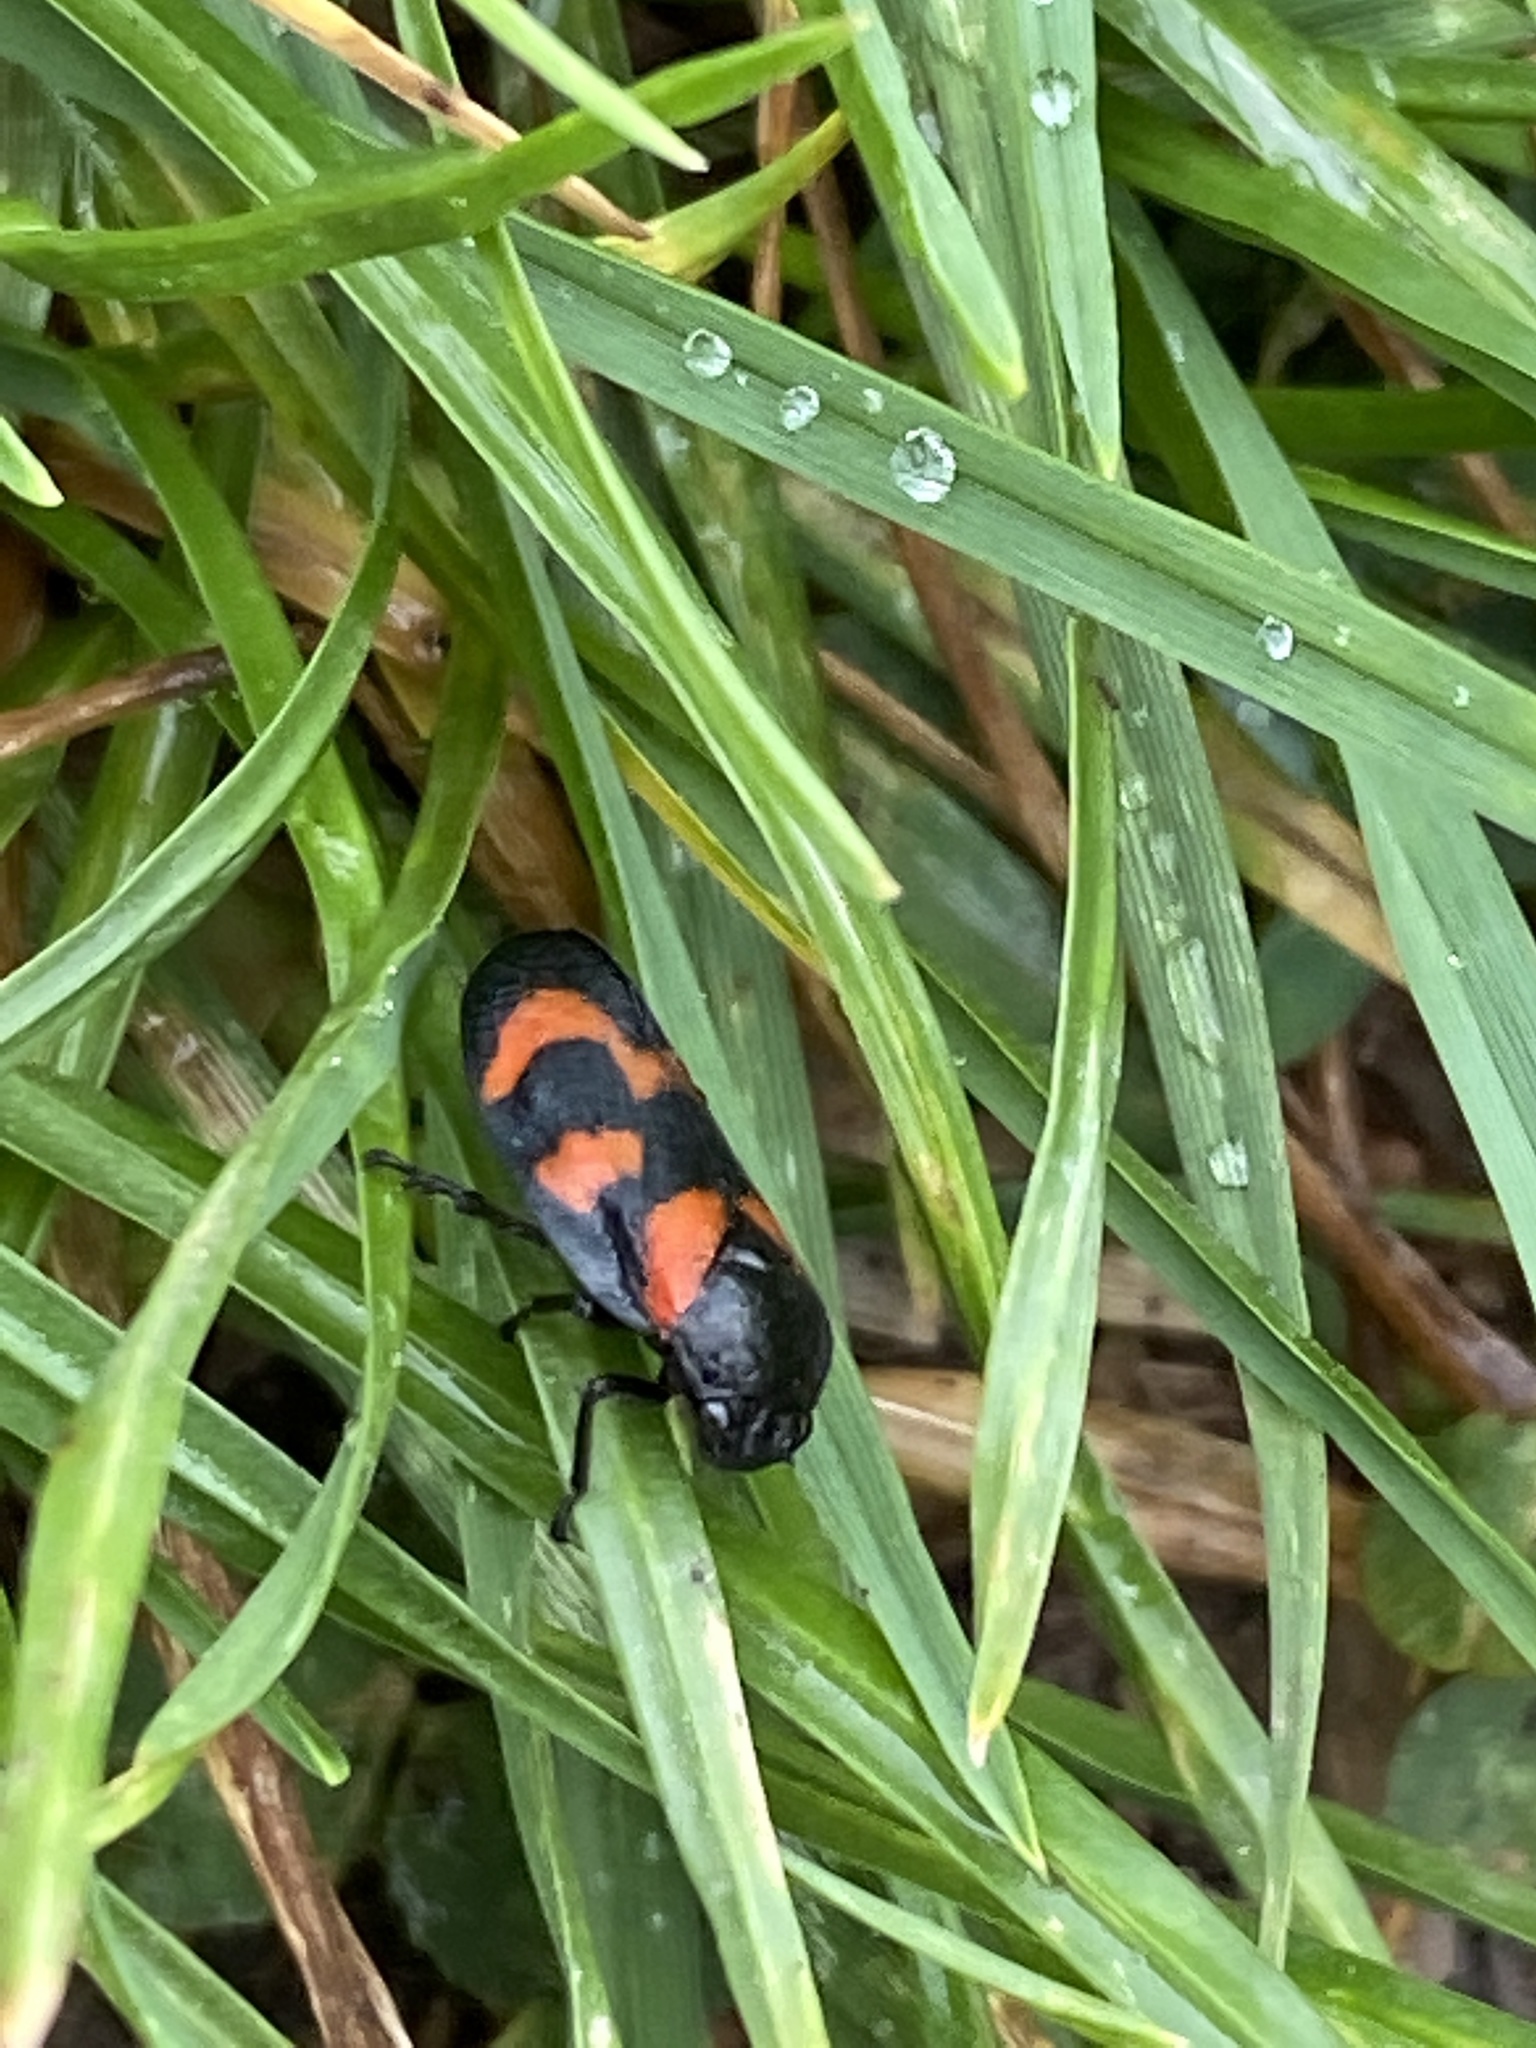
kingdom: Animalia
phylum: Arthropoda
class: Insecta
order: Hemiptera
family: Cercopidae
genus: Cercopis
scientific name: Cercopis vulnerata
